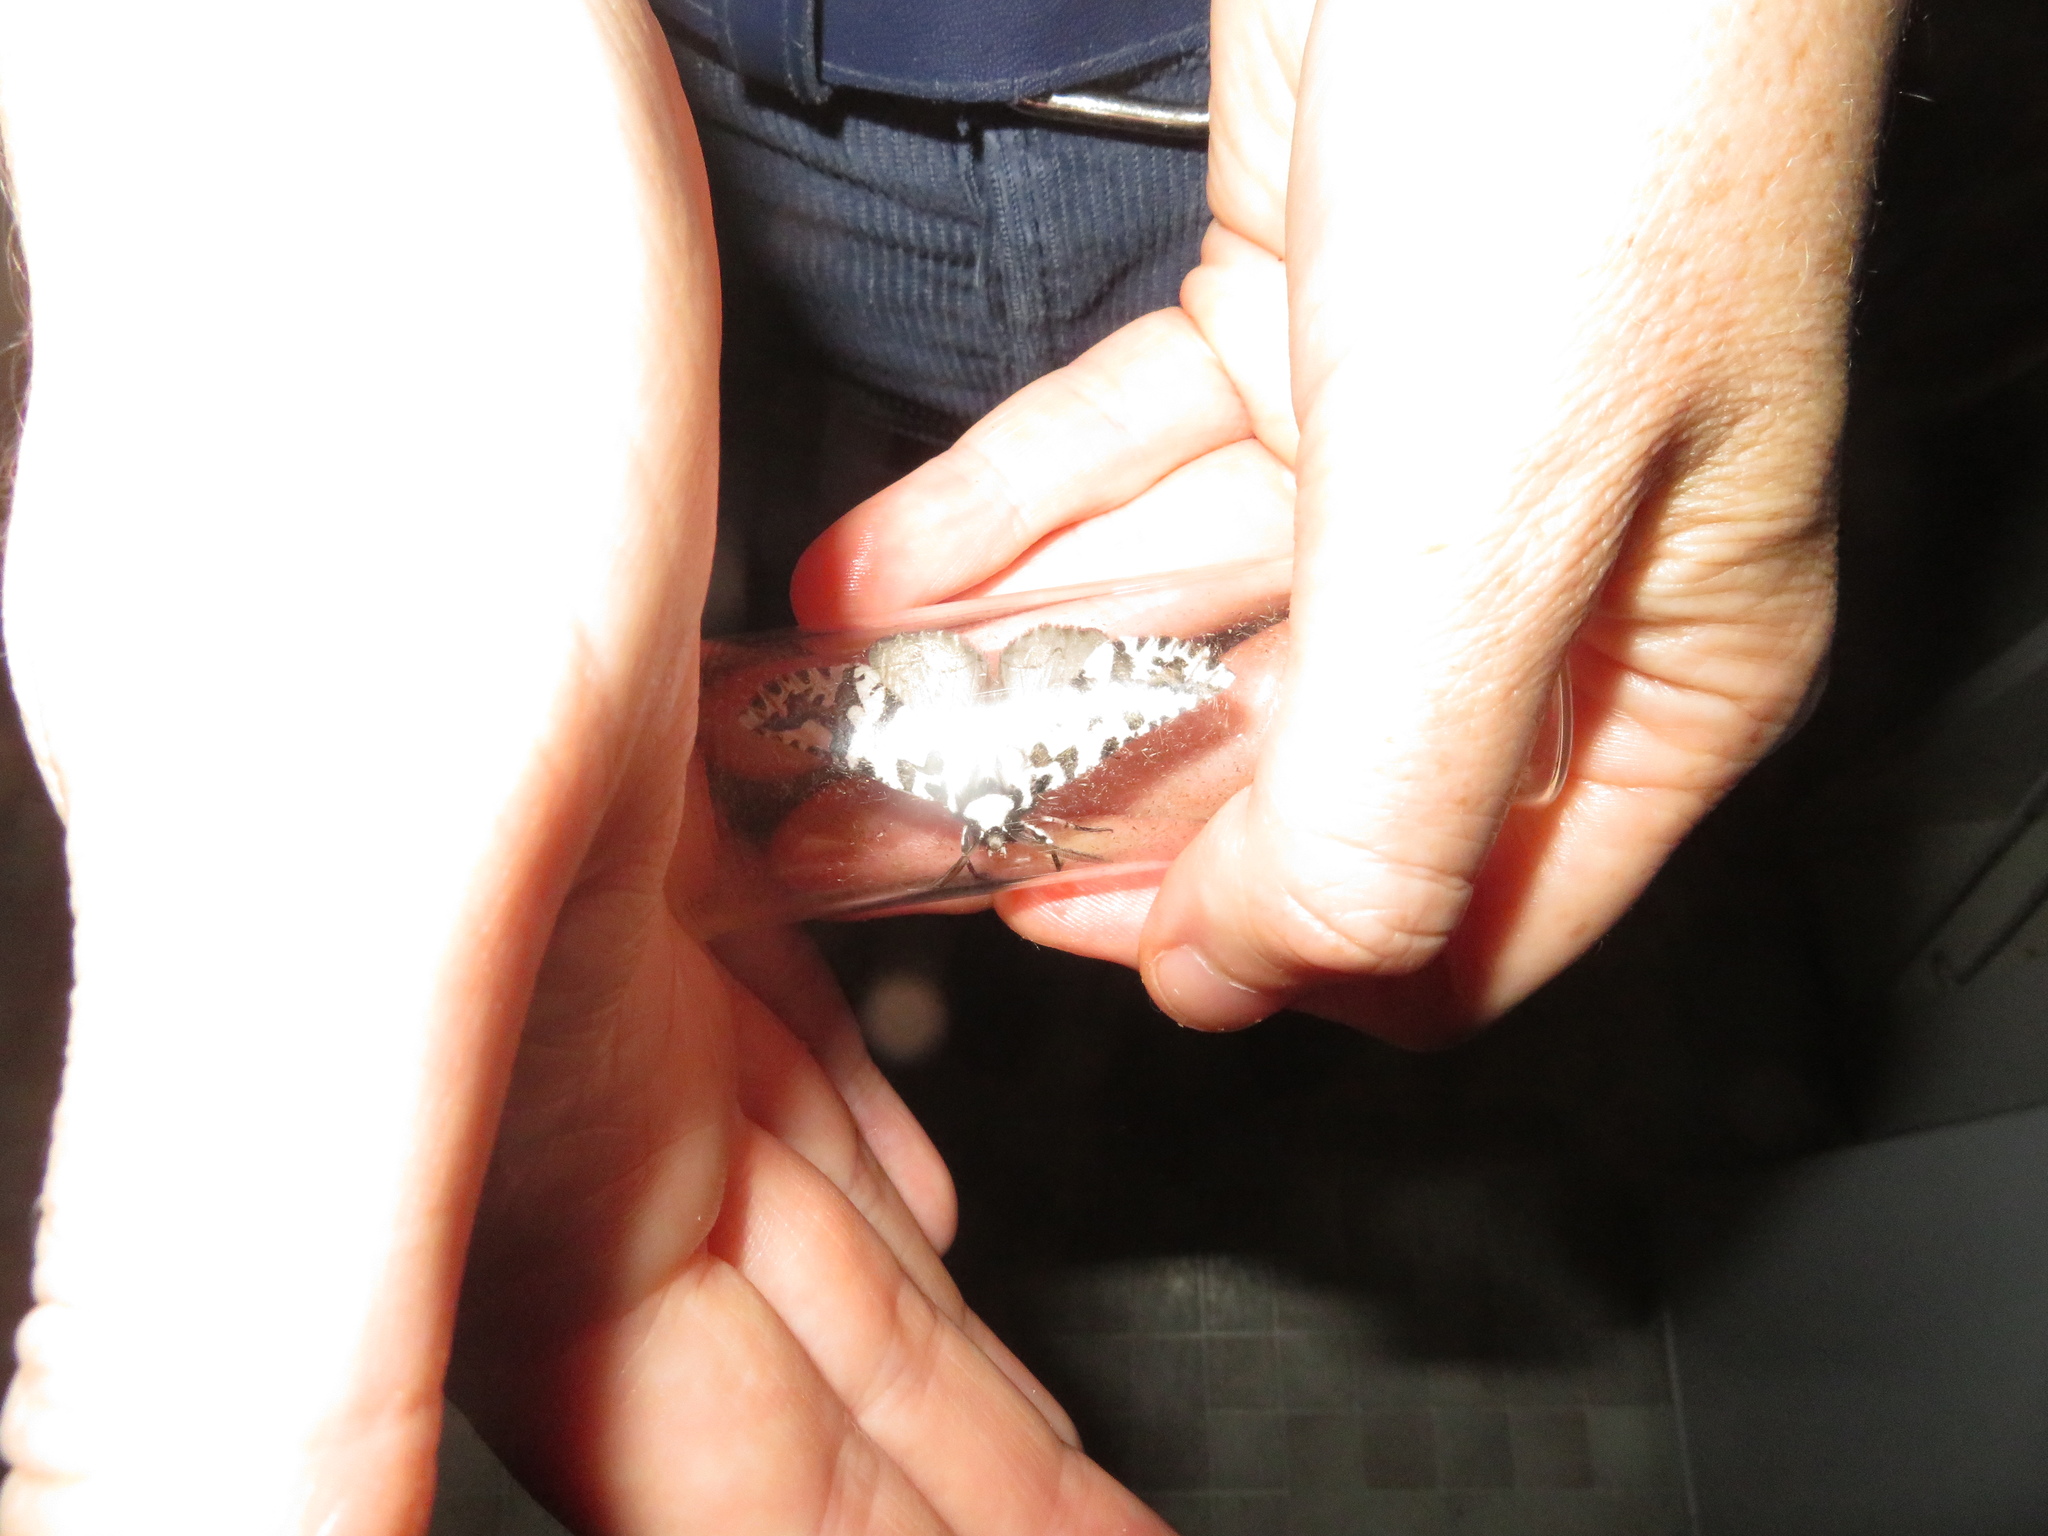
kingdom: Animalia
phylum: Arthropoda
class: Insecta
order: Lepidoptera
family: Geometridae
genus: Declana
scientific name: Declana
